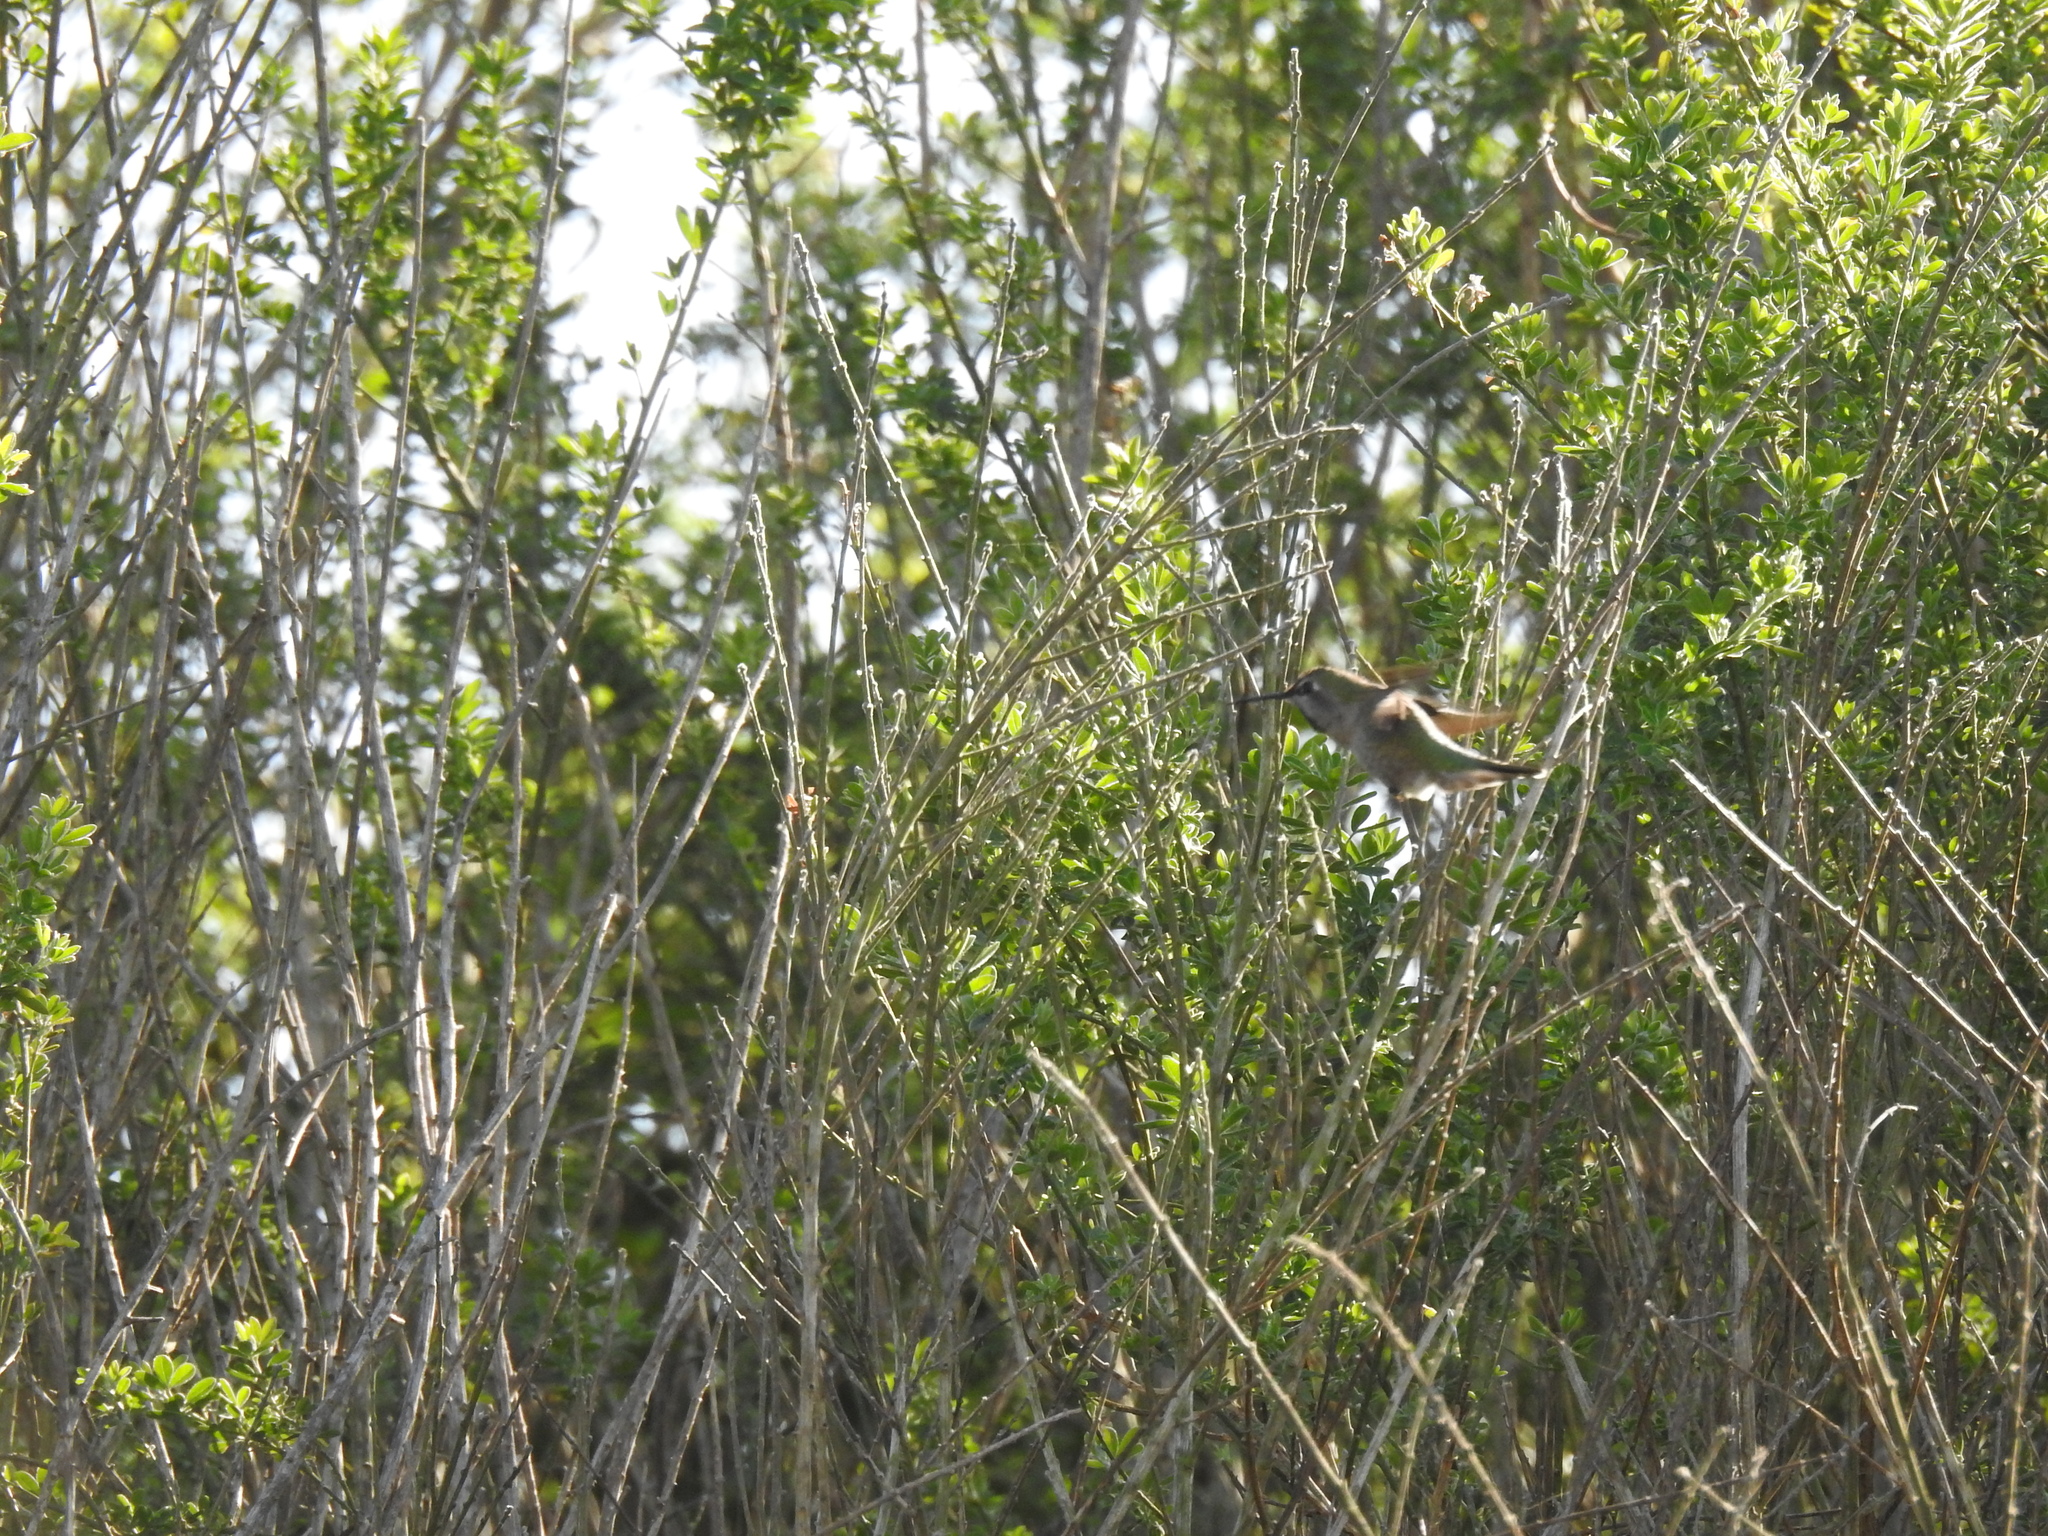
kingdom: Animalia
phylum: Chordata
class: Aves
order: Apodiformes
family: Trochilidae
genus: Calypte
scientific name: Calypte anna
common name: Anna's hummingbird
